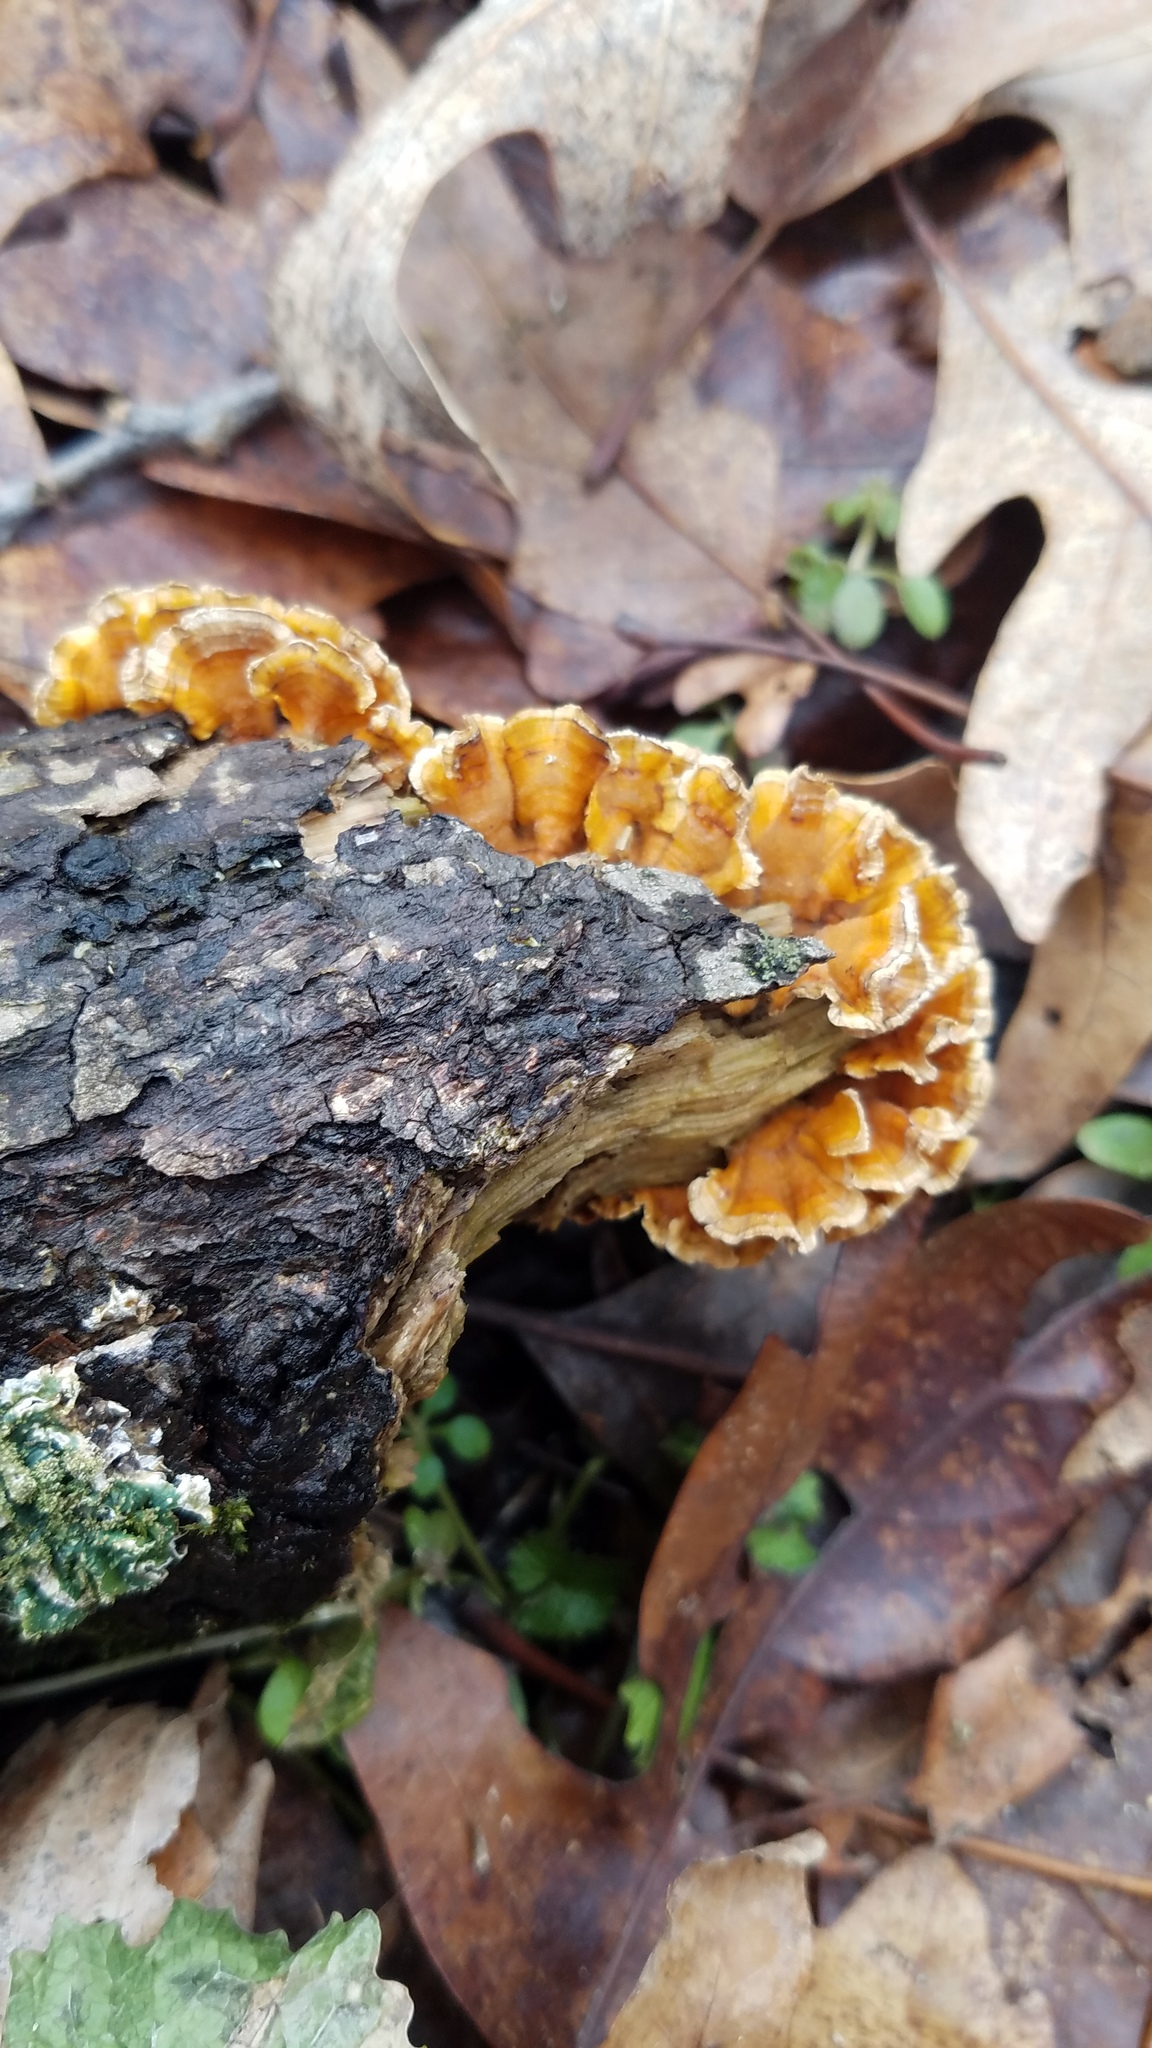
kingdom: Fungi
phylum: Basidiomycota
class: Agaricomycetes
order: Russulales
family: Stereaceae
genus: Stereum
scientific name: Stereum complicatum
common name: Crowded parchment
